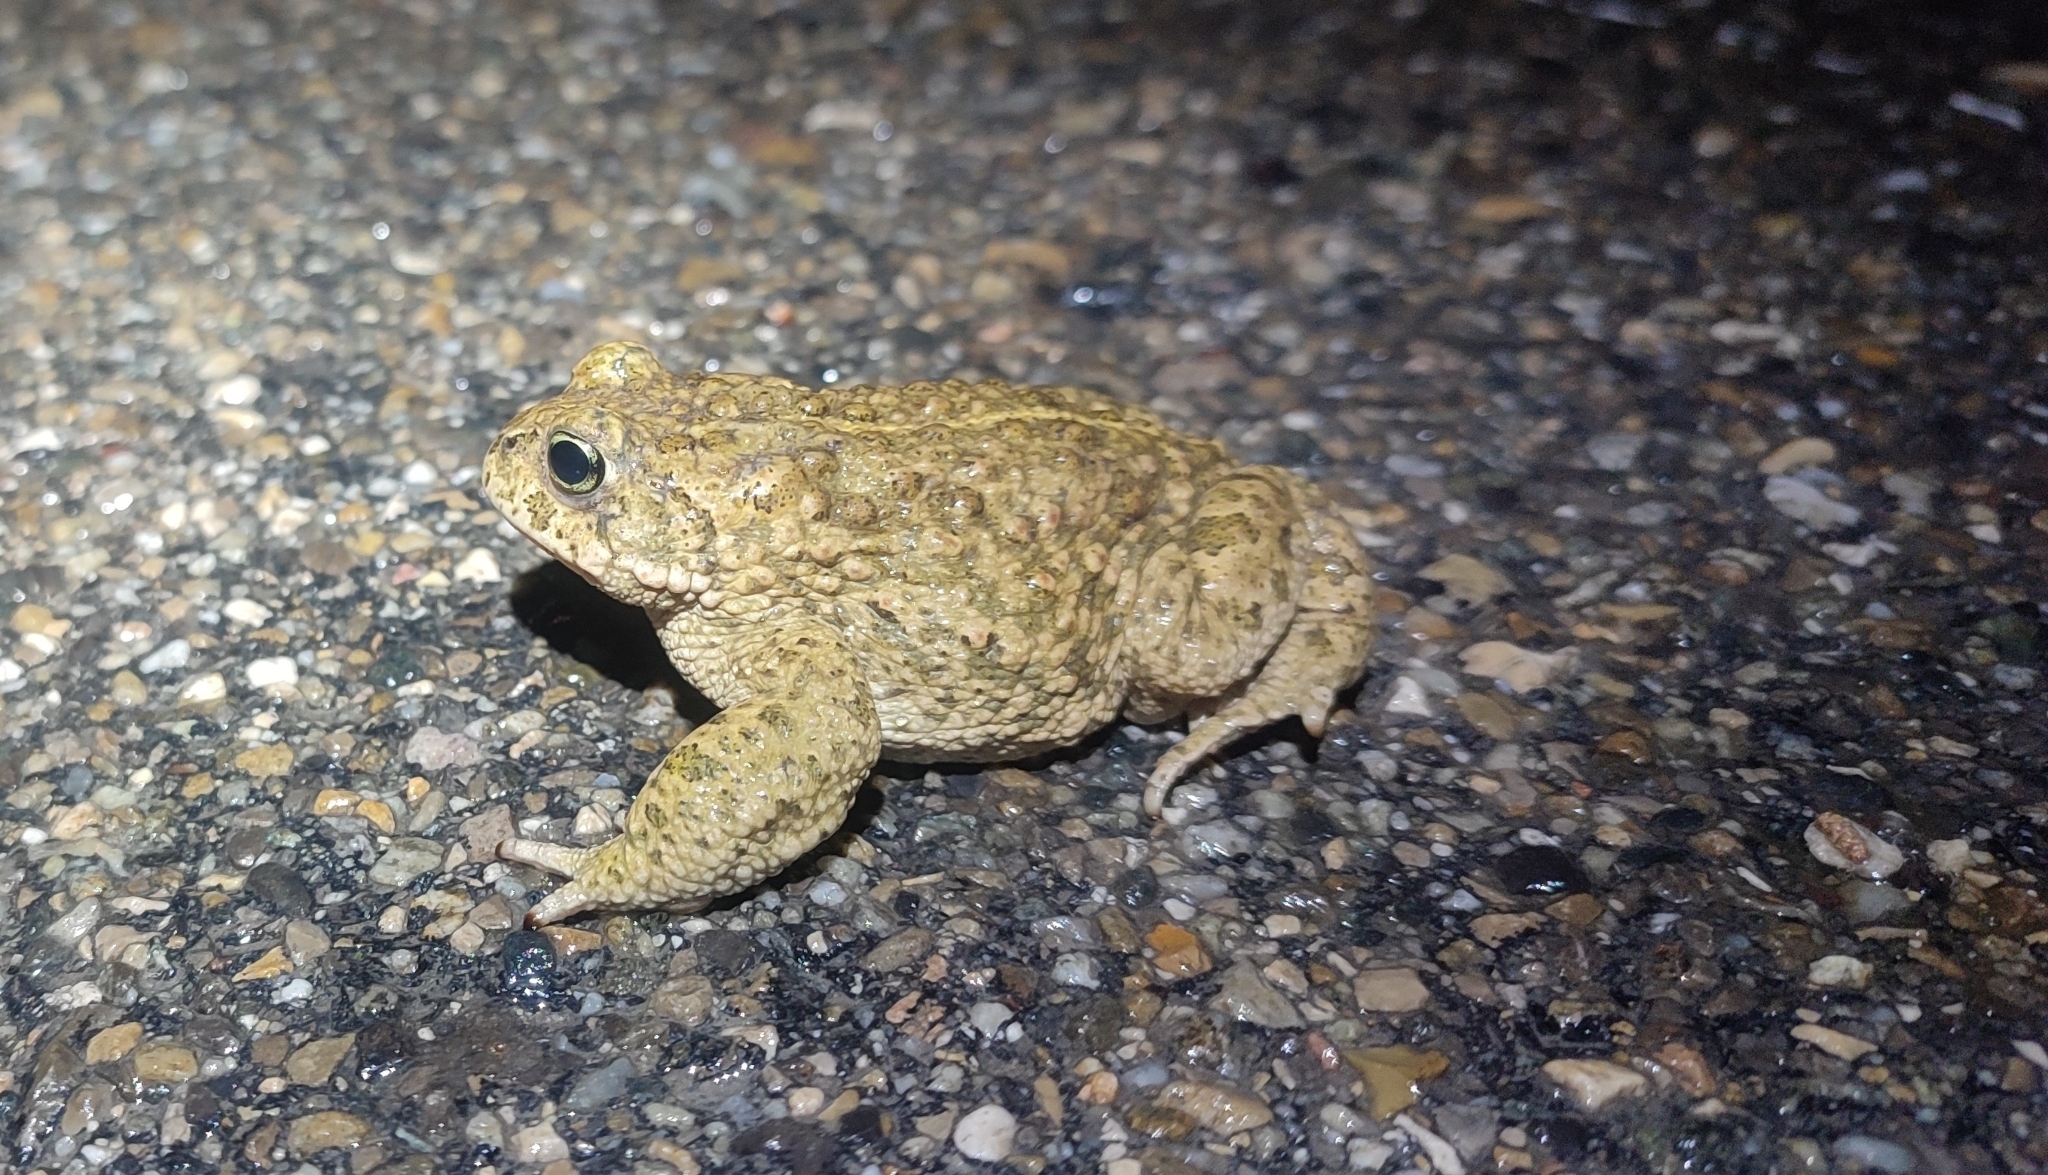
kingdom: Animalia
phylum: Chordata
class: Amphibia
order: Anura
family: Bufonidae
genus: Epidalea
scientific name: Epidalea calamita
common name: Natterjack toad
